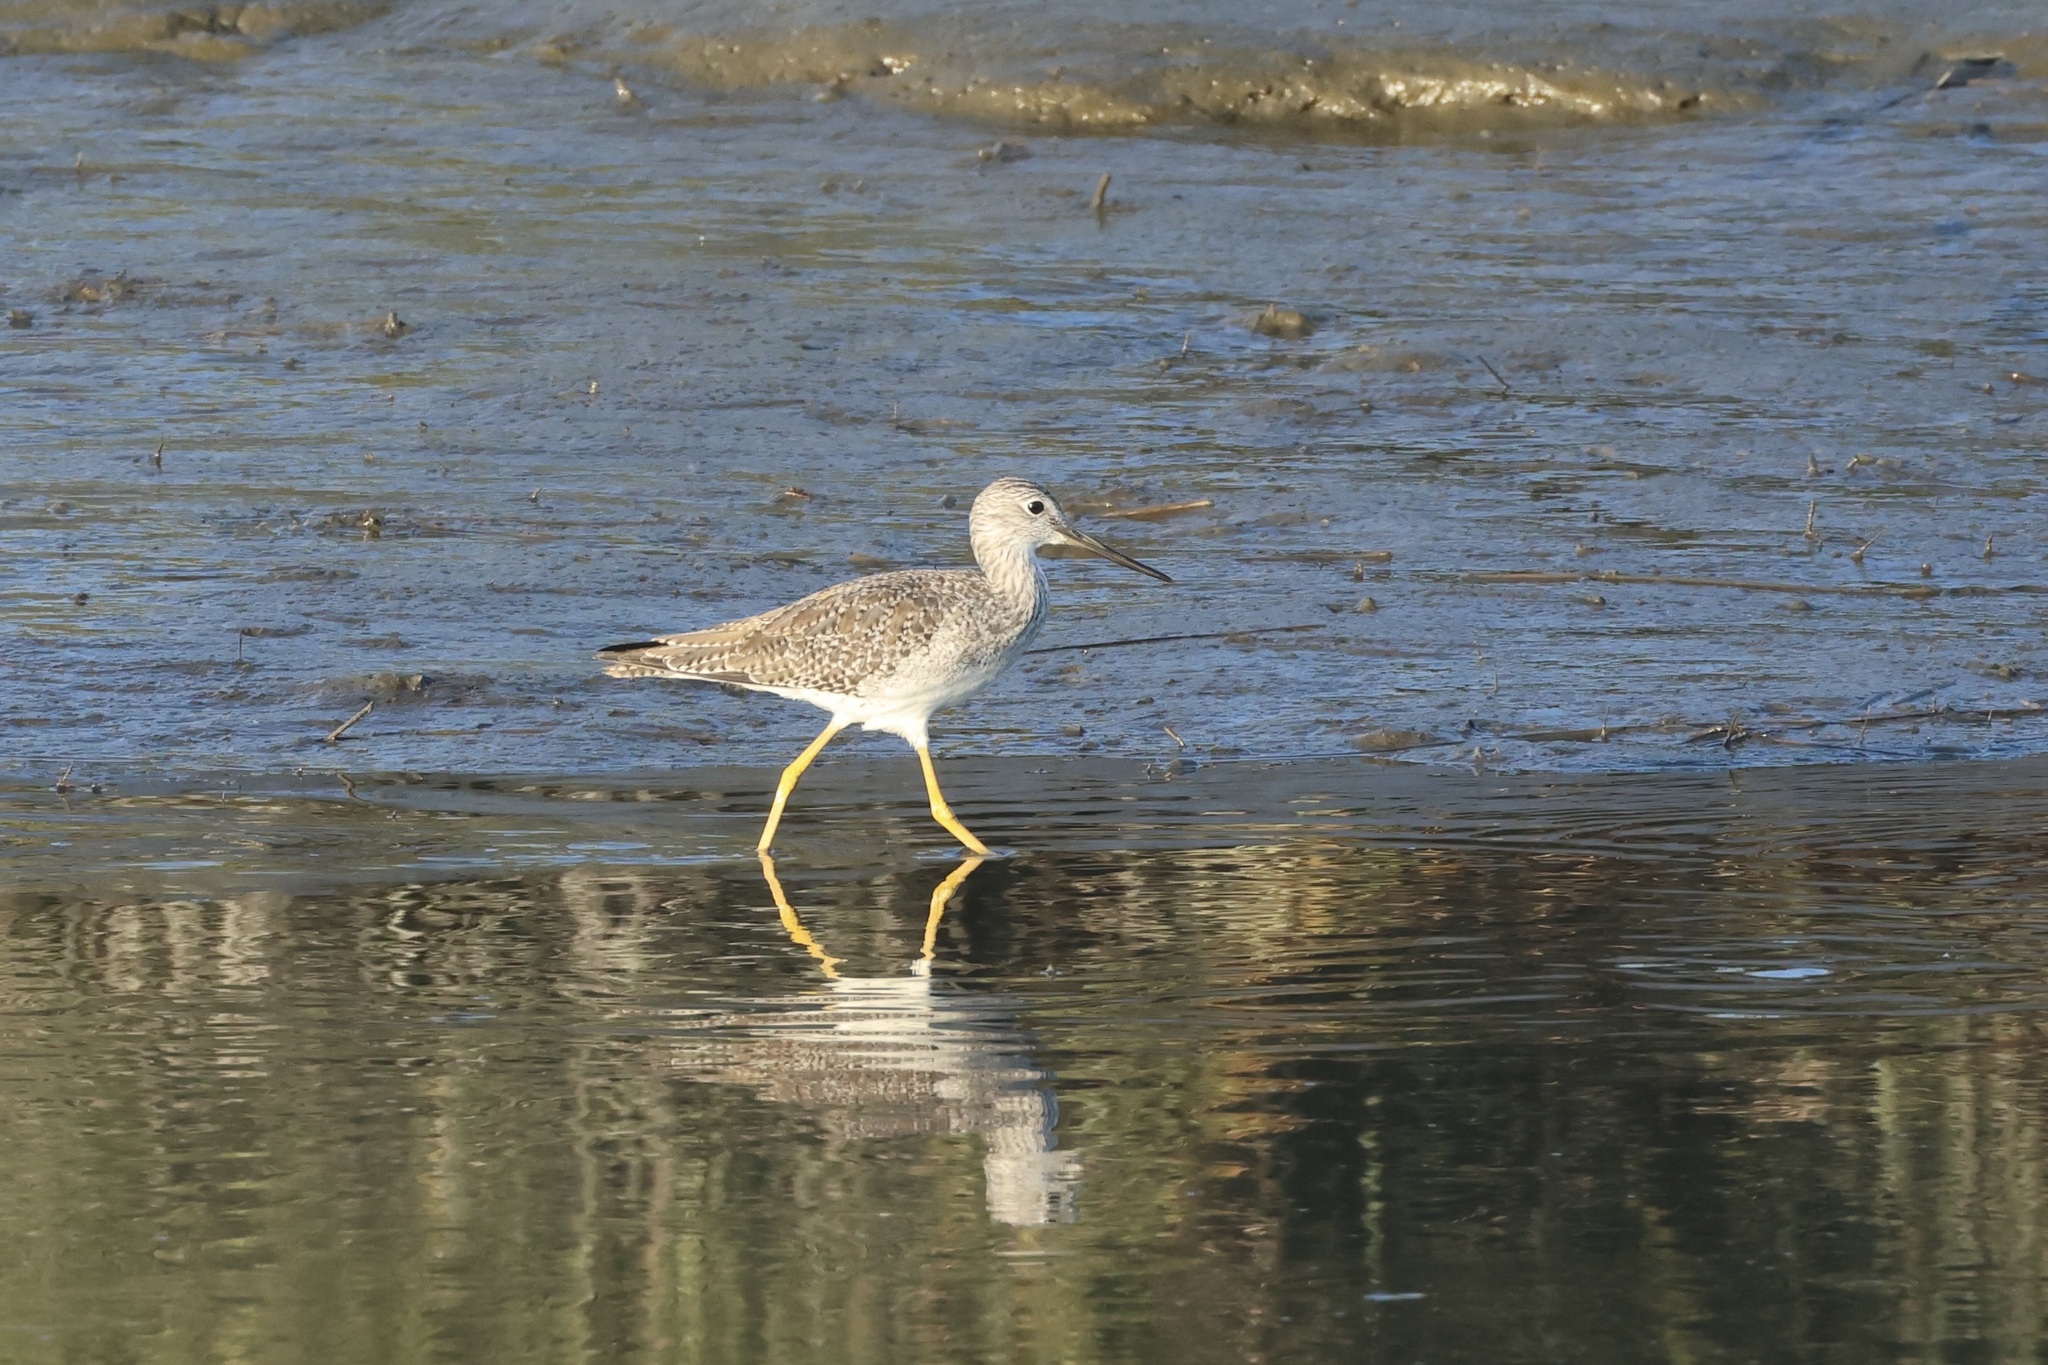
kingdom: Animalia
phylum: Chordata
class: Aves
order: Charadriiformes
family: Scolopacidae
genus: Tringa
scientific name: Tringa melanoleuca
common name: Greater yellowlegs
